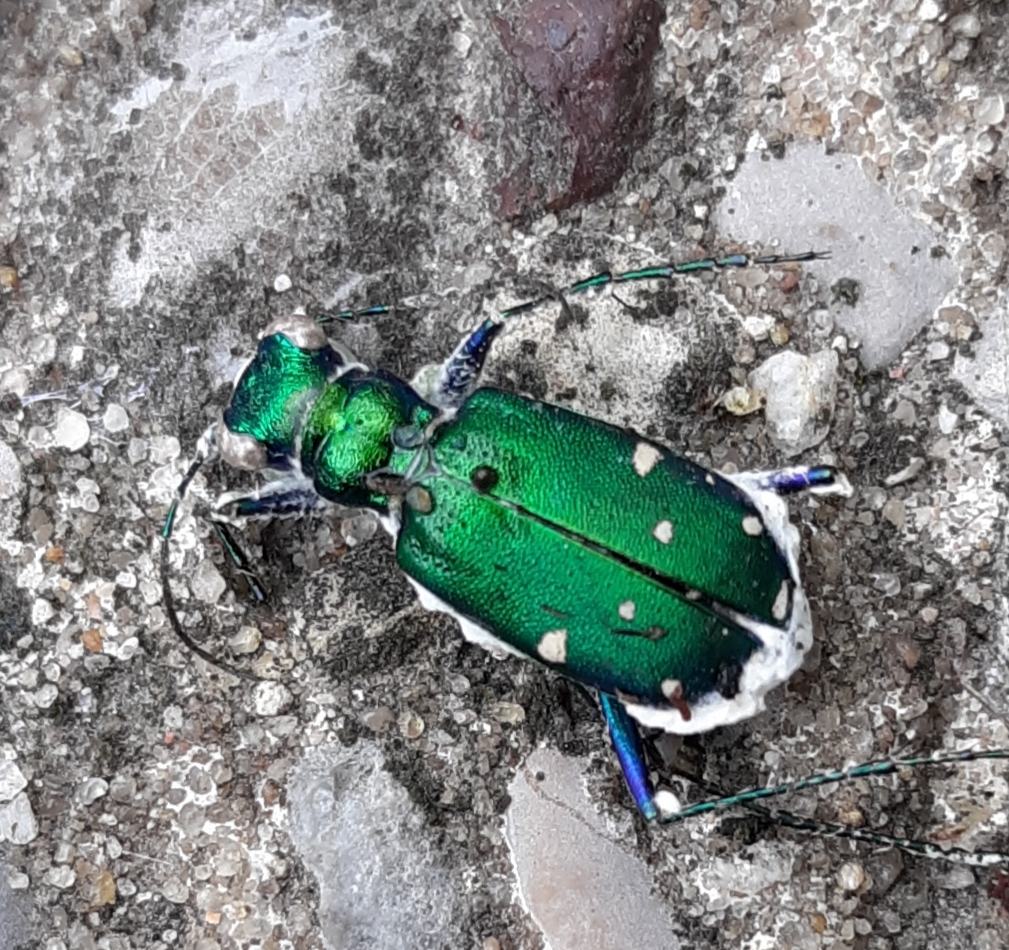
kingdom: Animalia
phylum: Arthropoda
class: Insecta
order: Coleoptera
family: Carabidae
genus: Cicindela
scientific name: Cicindela sexguttata
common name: Six-spotted tiger beetle
